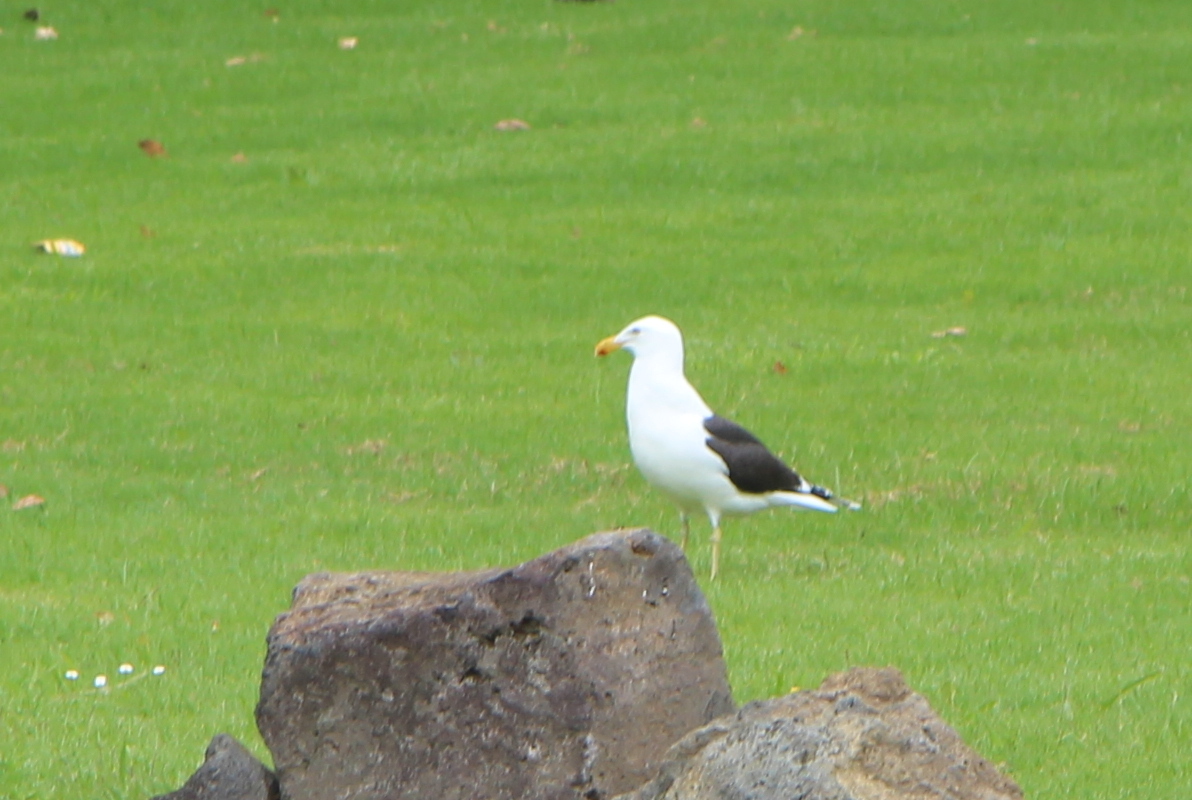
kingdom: Animalia
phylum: Chordata
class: Aves
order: Charadriiformes
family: Laridae
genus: Larus
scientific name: Larus dominicanus
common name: Kelp gull
